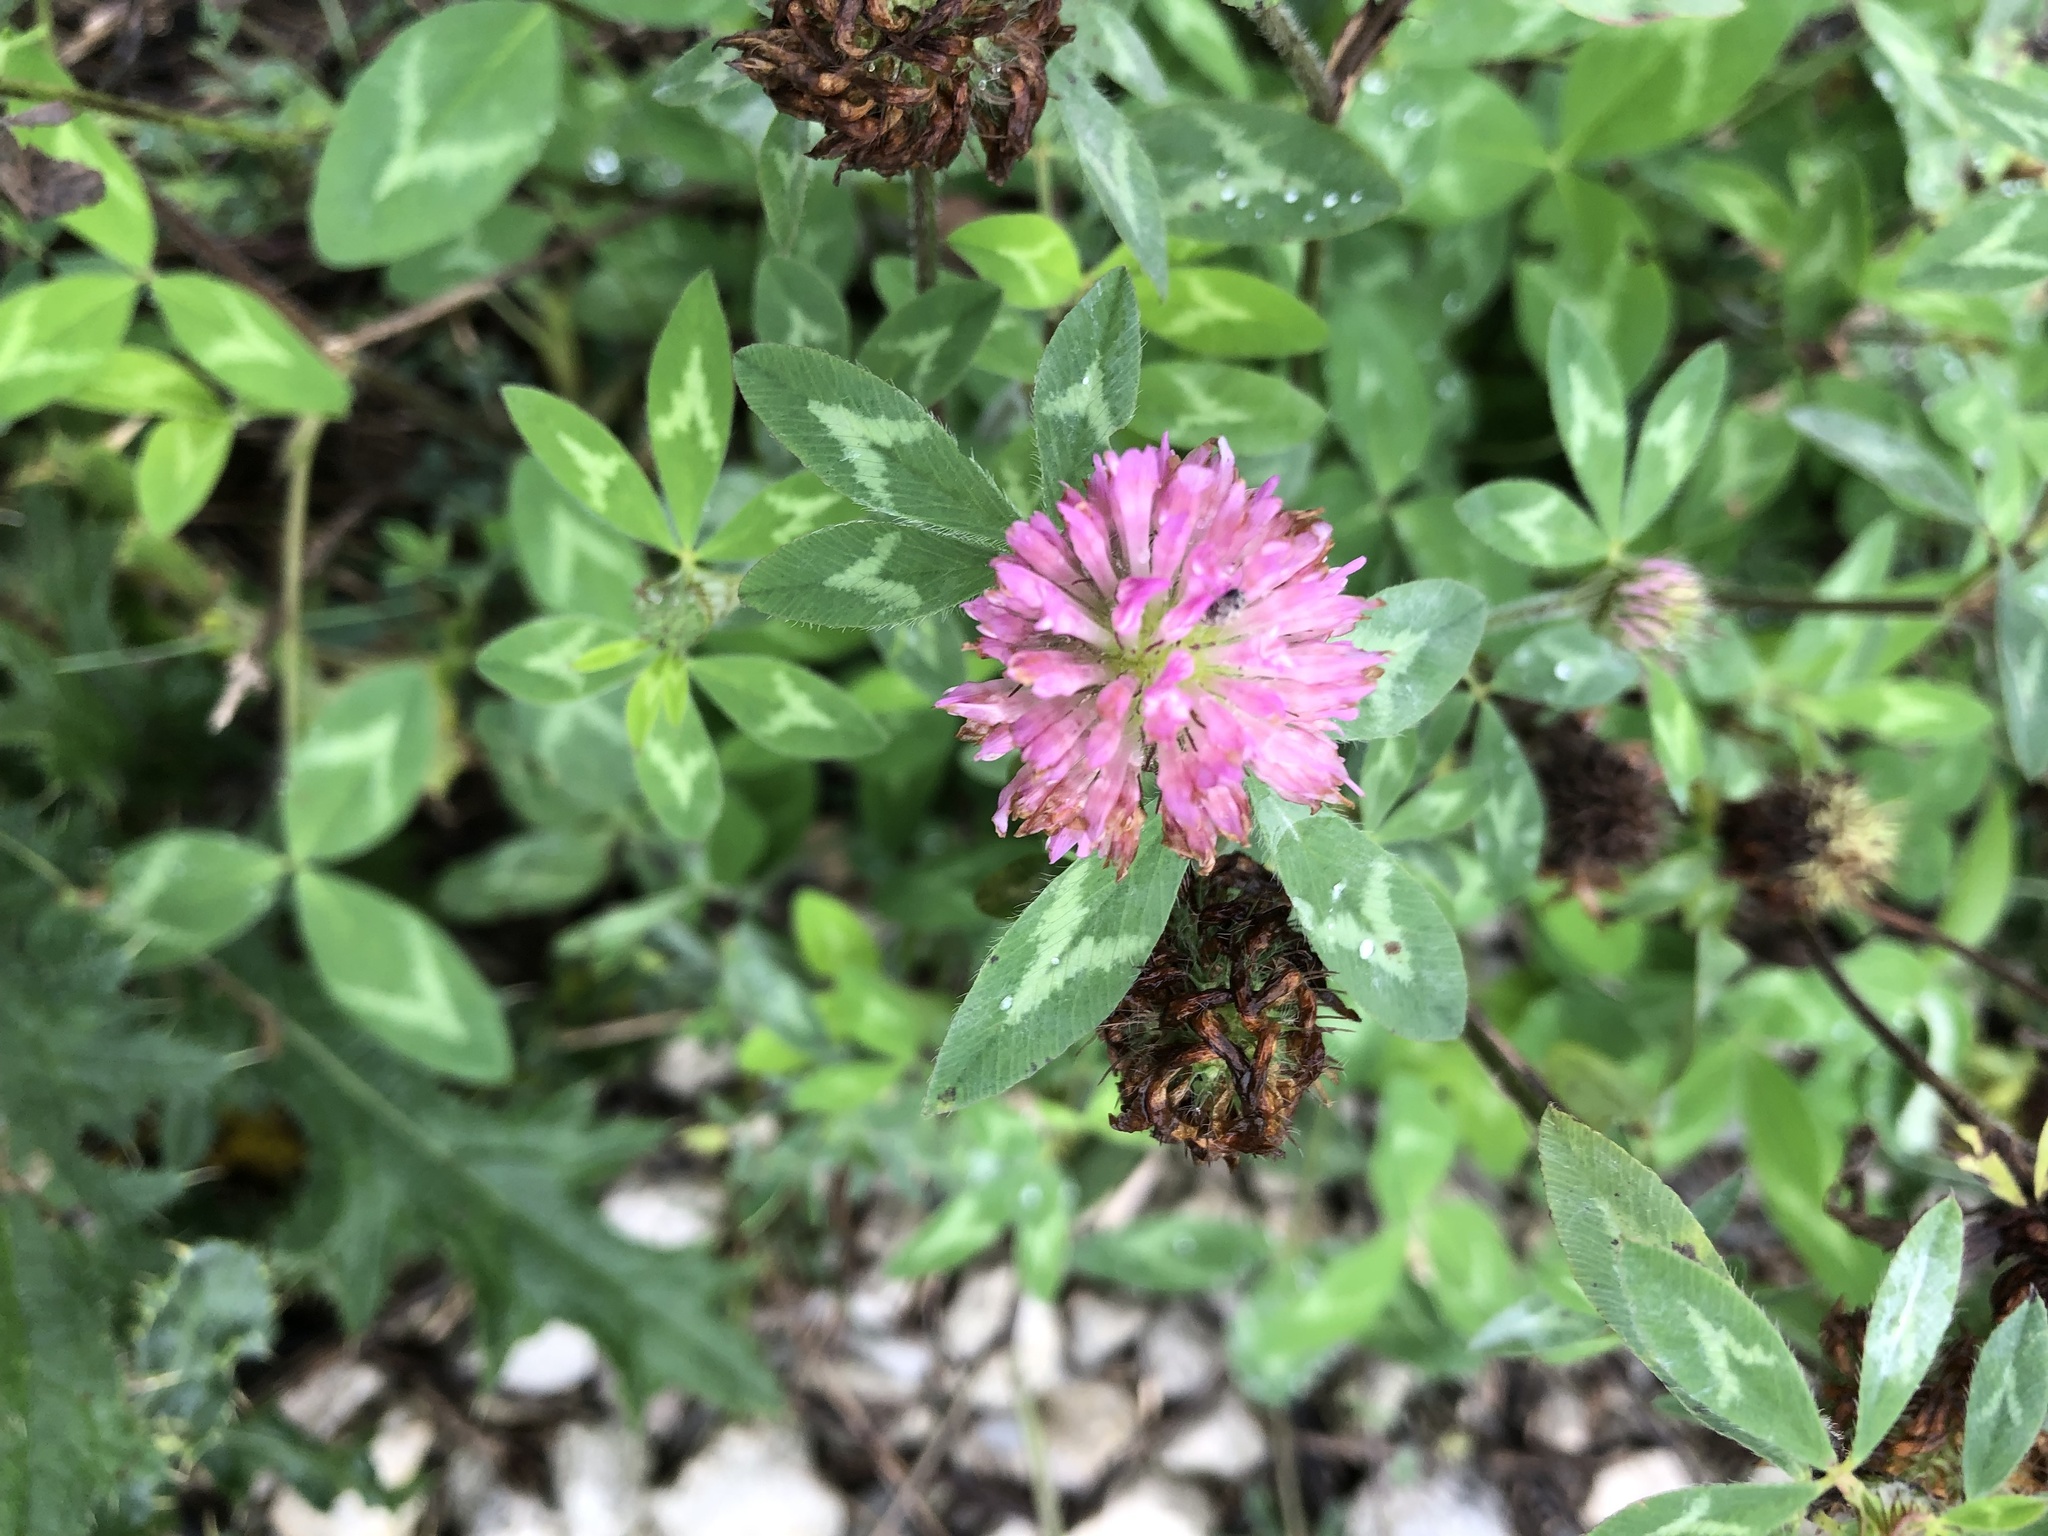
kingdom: Plantae
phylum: Tracheophyta
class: Magnoliopsida
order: Fabales
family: Fabaceae
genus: Trifolium
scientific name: Trifolium pratense
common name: Red clover
